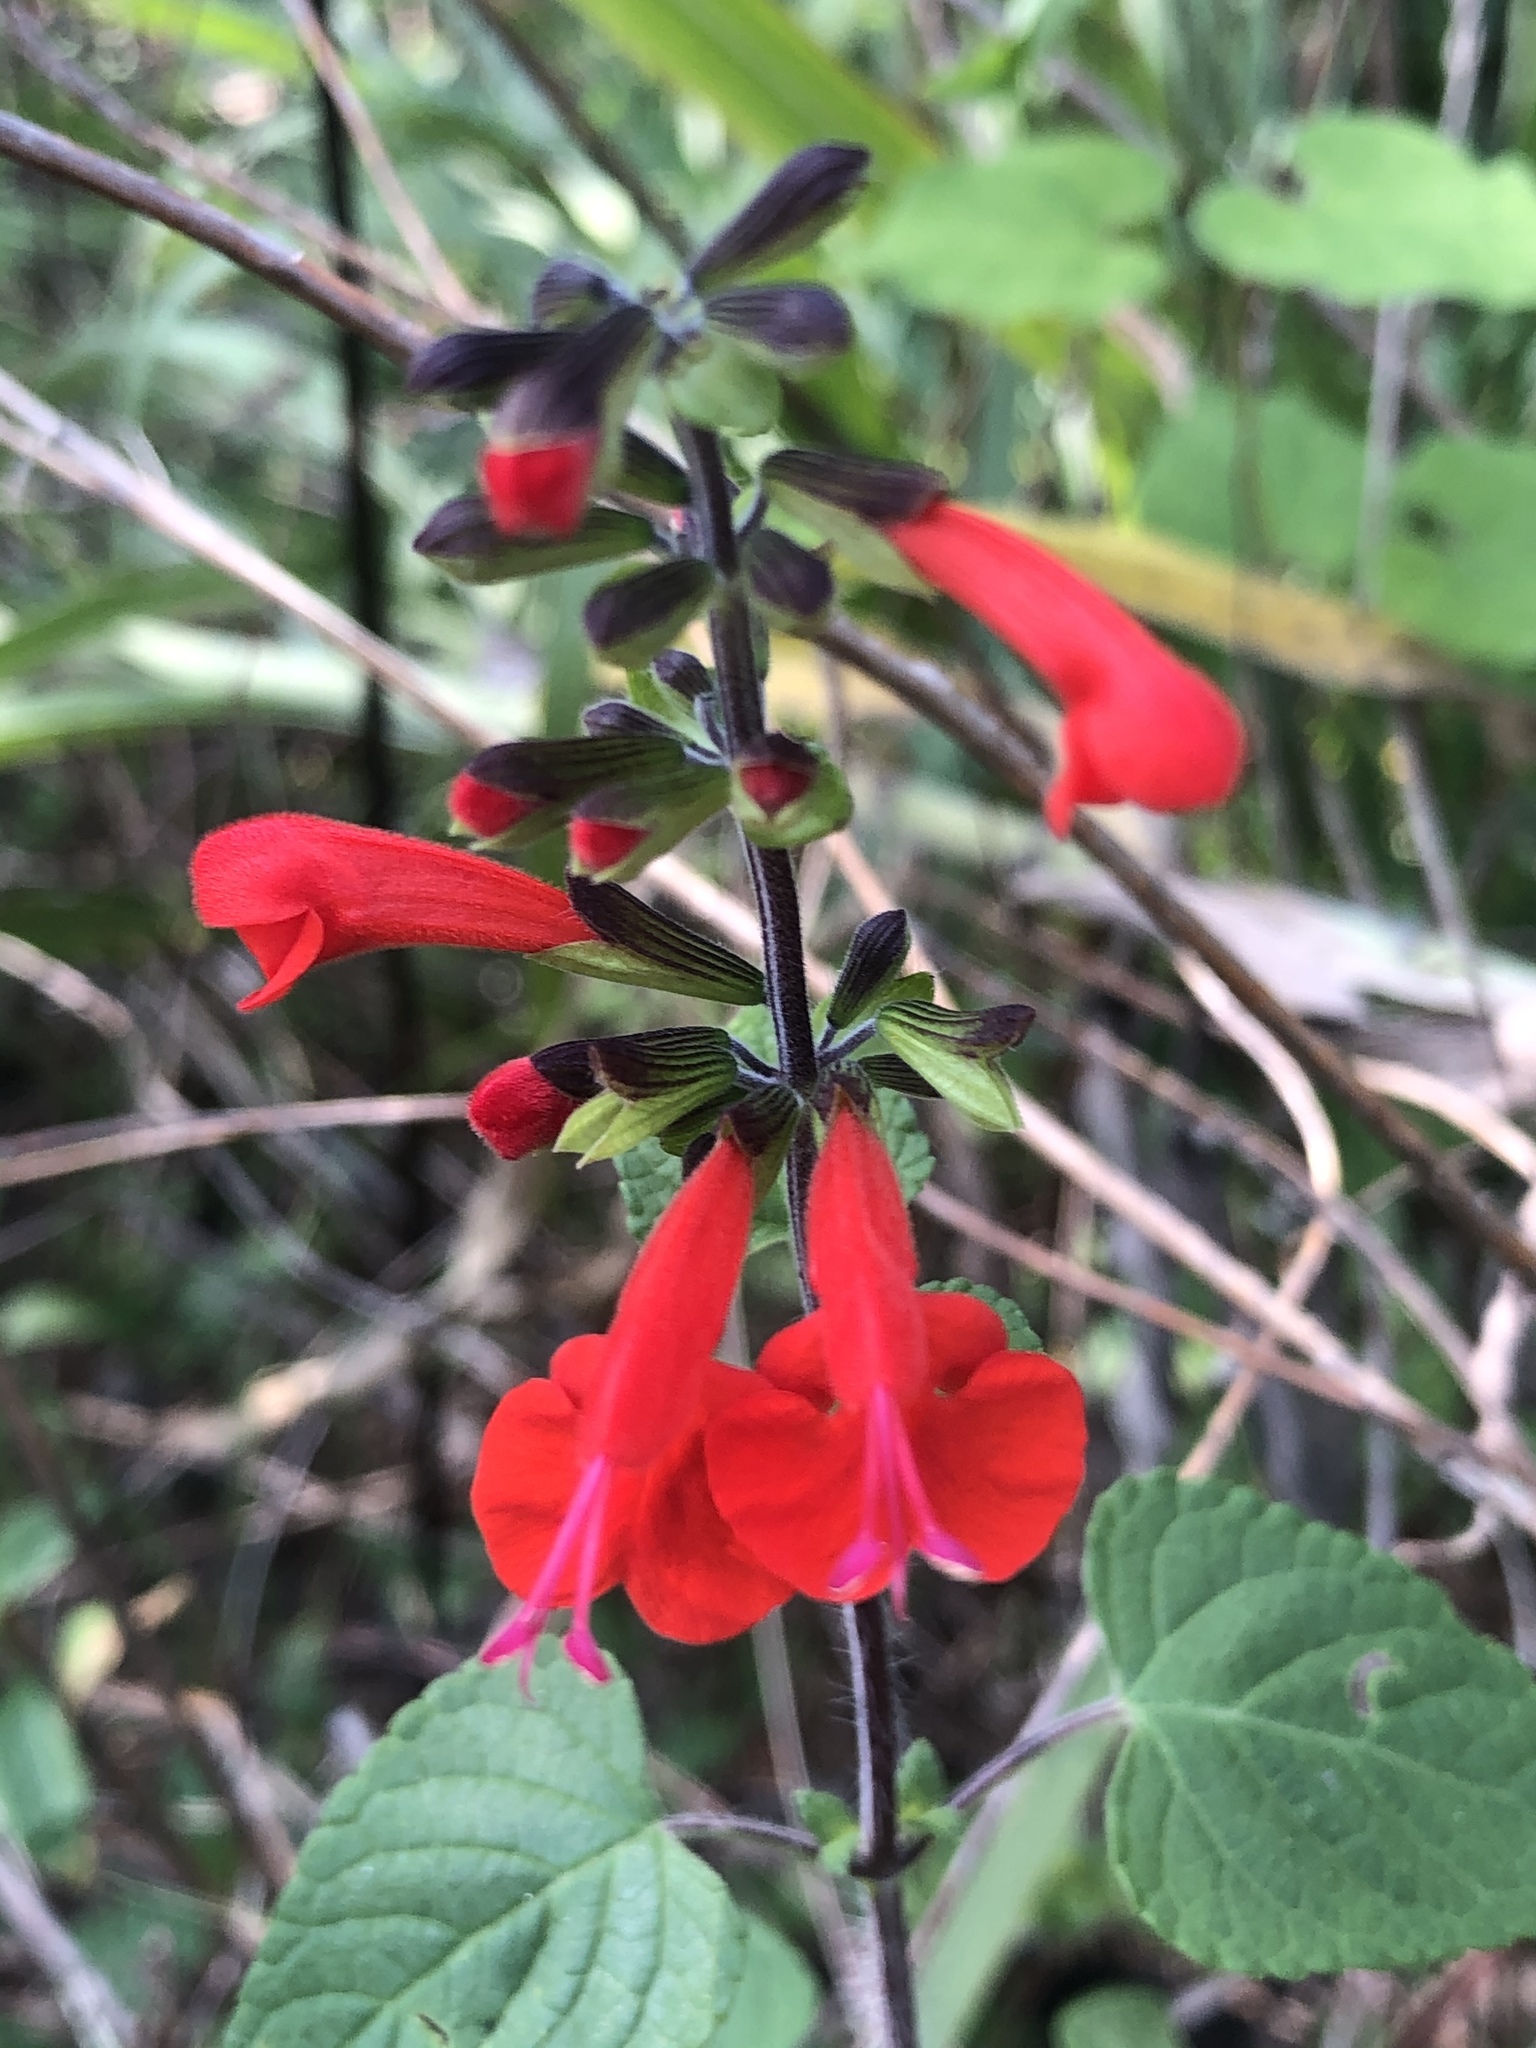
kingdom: Plantae
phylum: Tracheophyta
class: Magnoliopsida
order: Lamiales
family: Lamiaceae
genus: Salvia
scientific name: Salvia coccinea
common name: Blood sage
